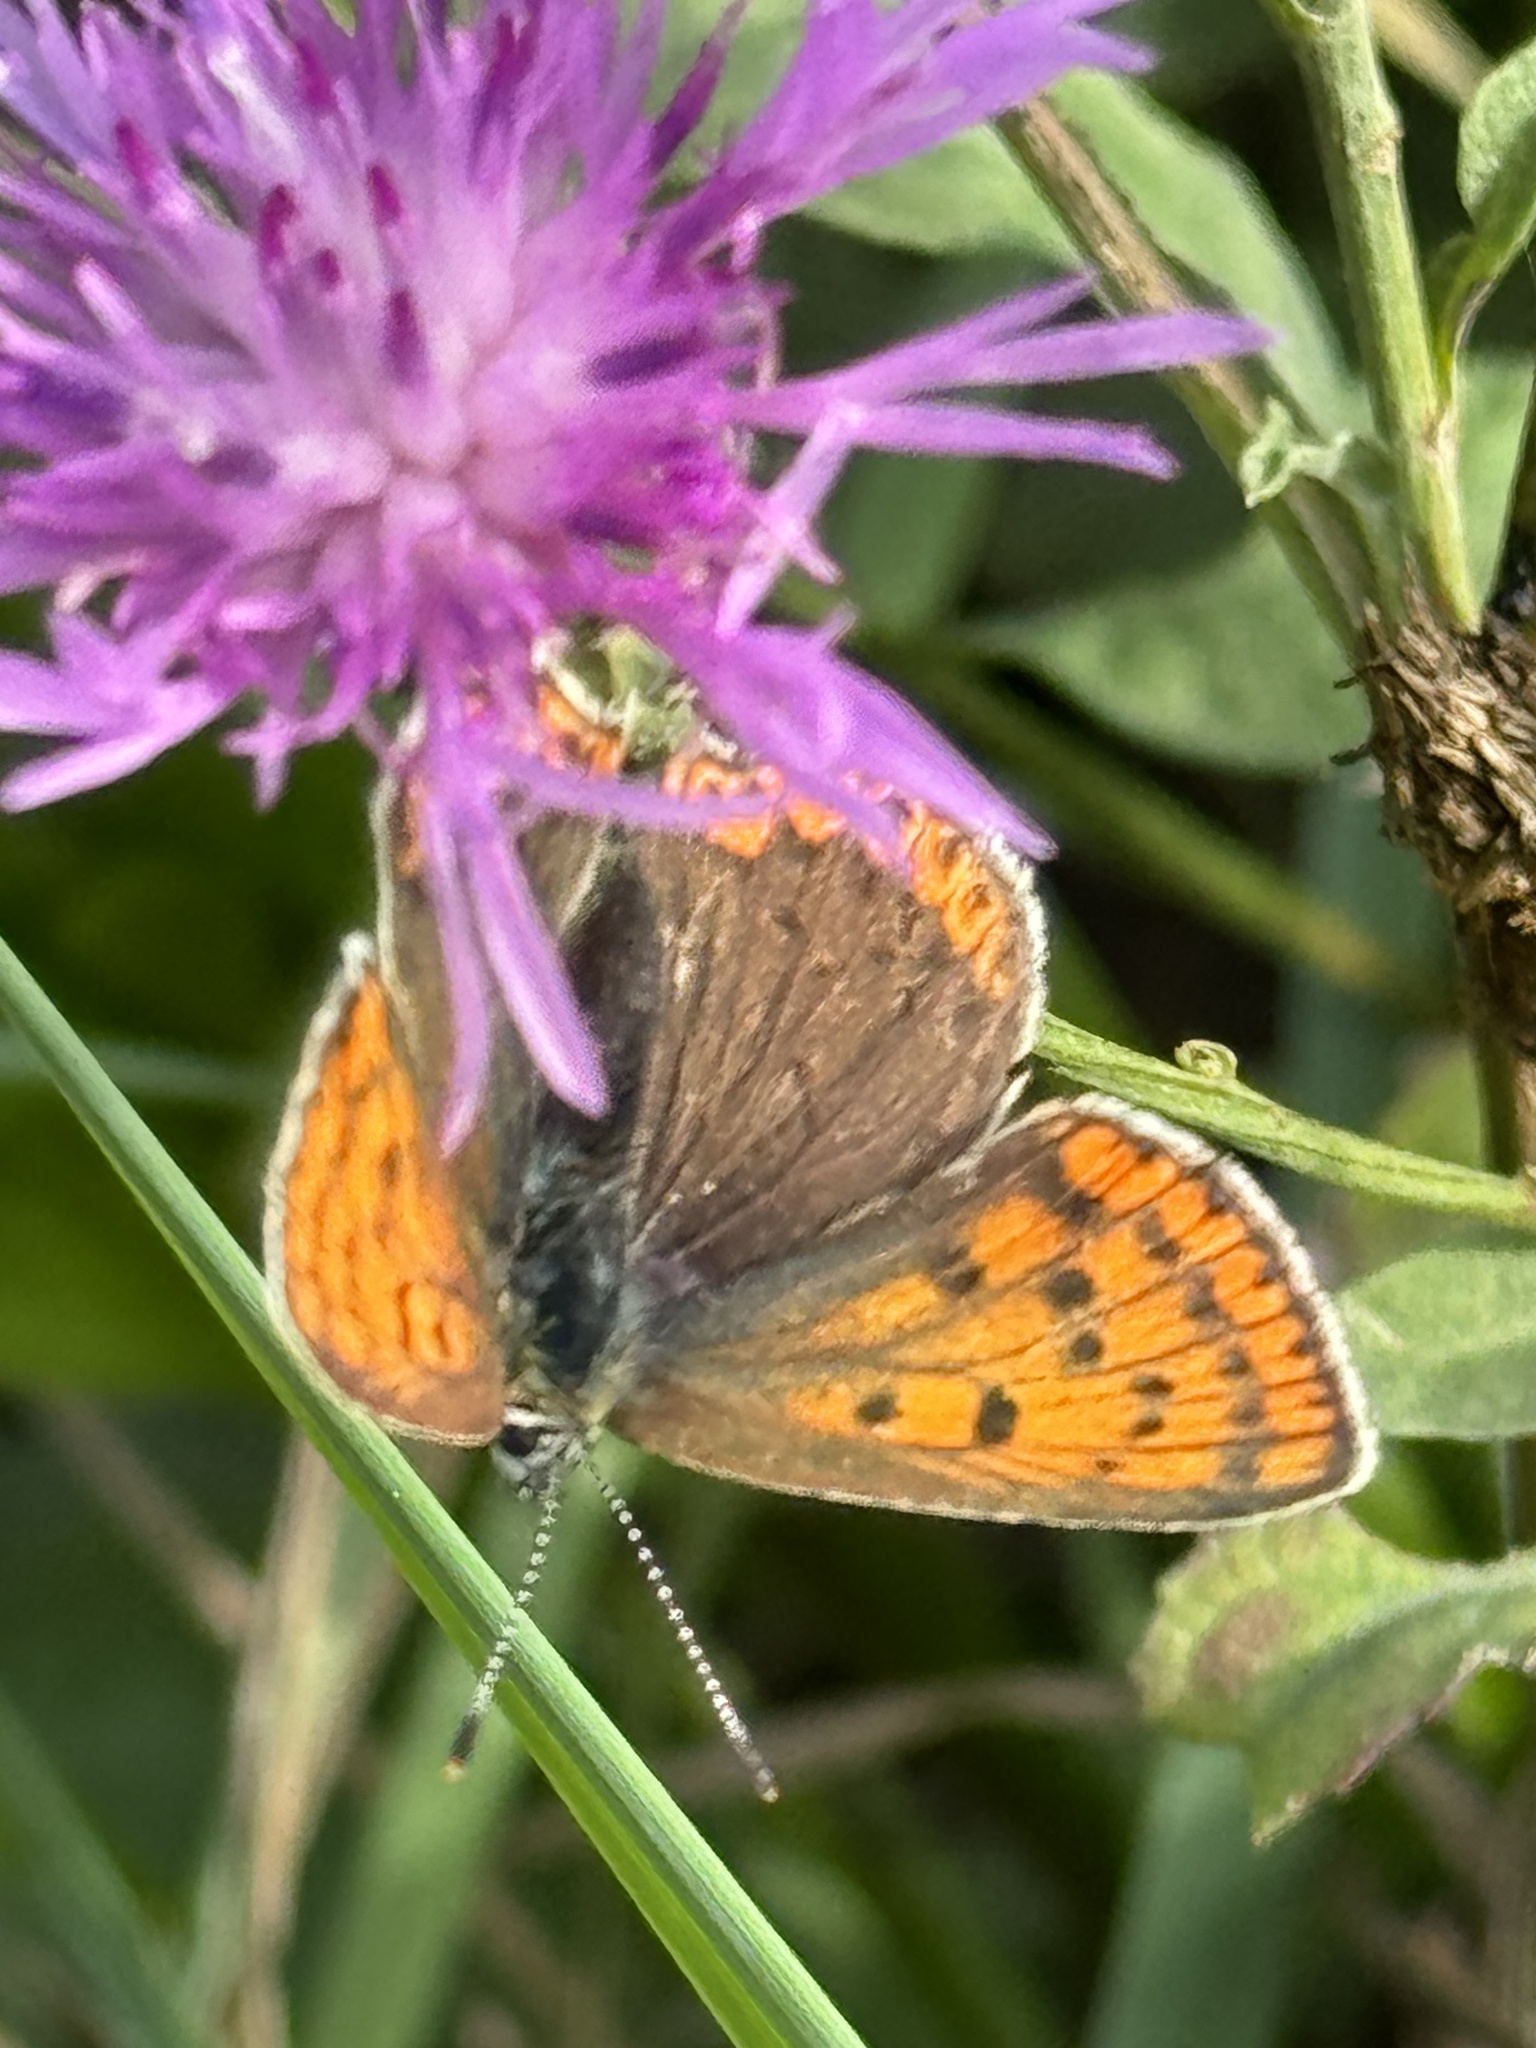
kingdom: Animalia
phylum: Arthropoda
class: Insecta
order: Lepidoptera
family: Lycaenidae
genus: Loweia
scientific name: Loweia tityrus
